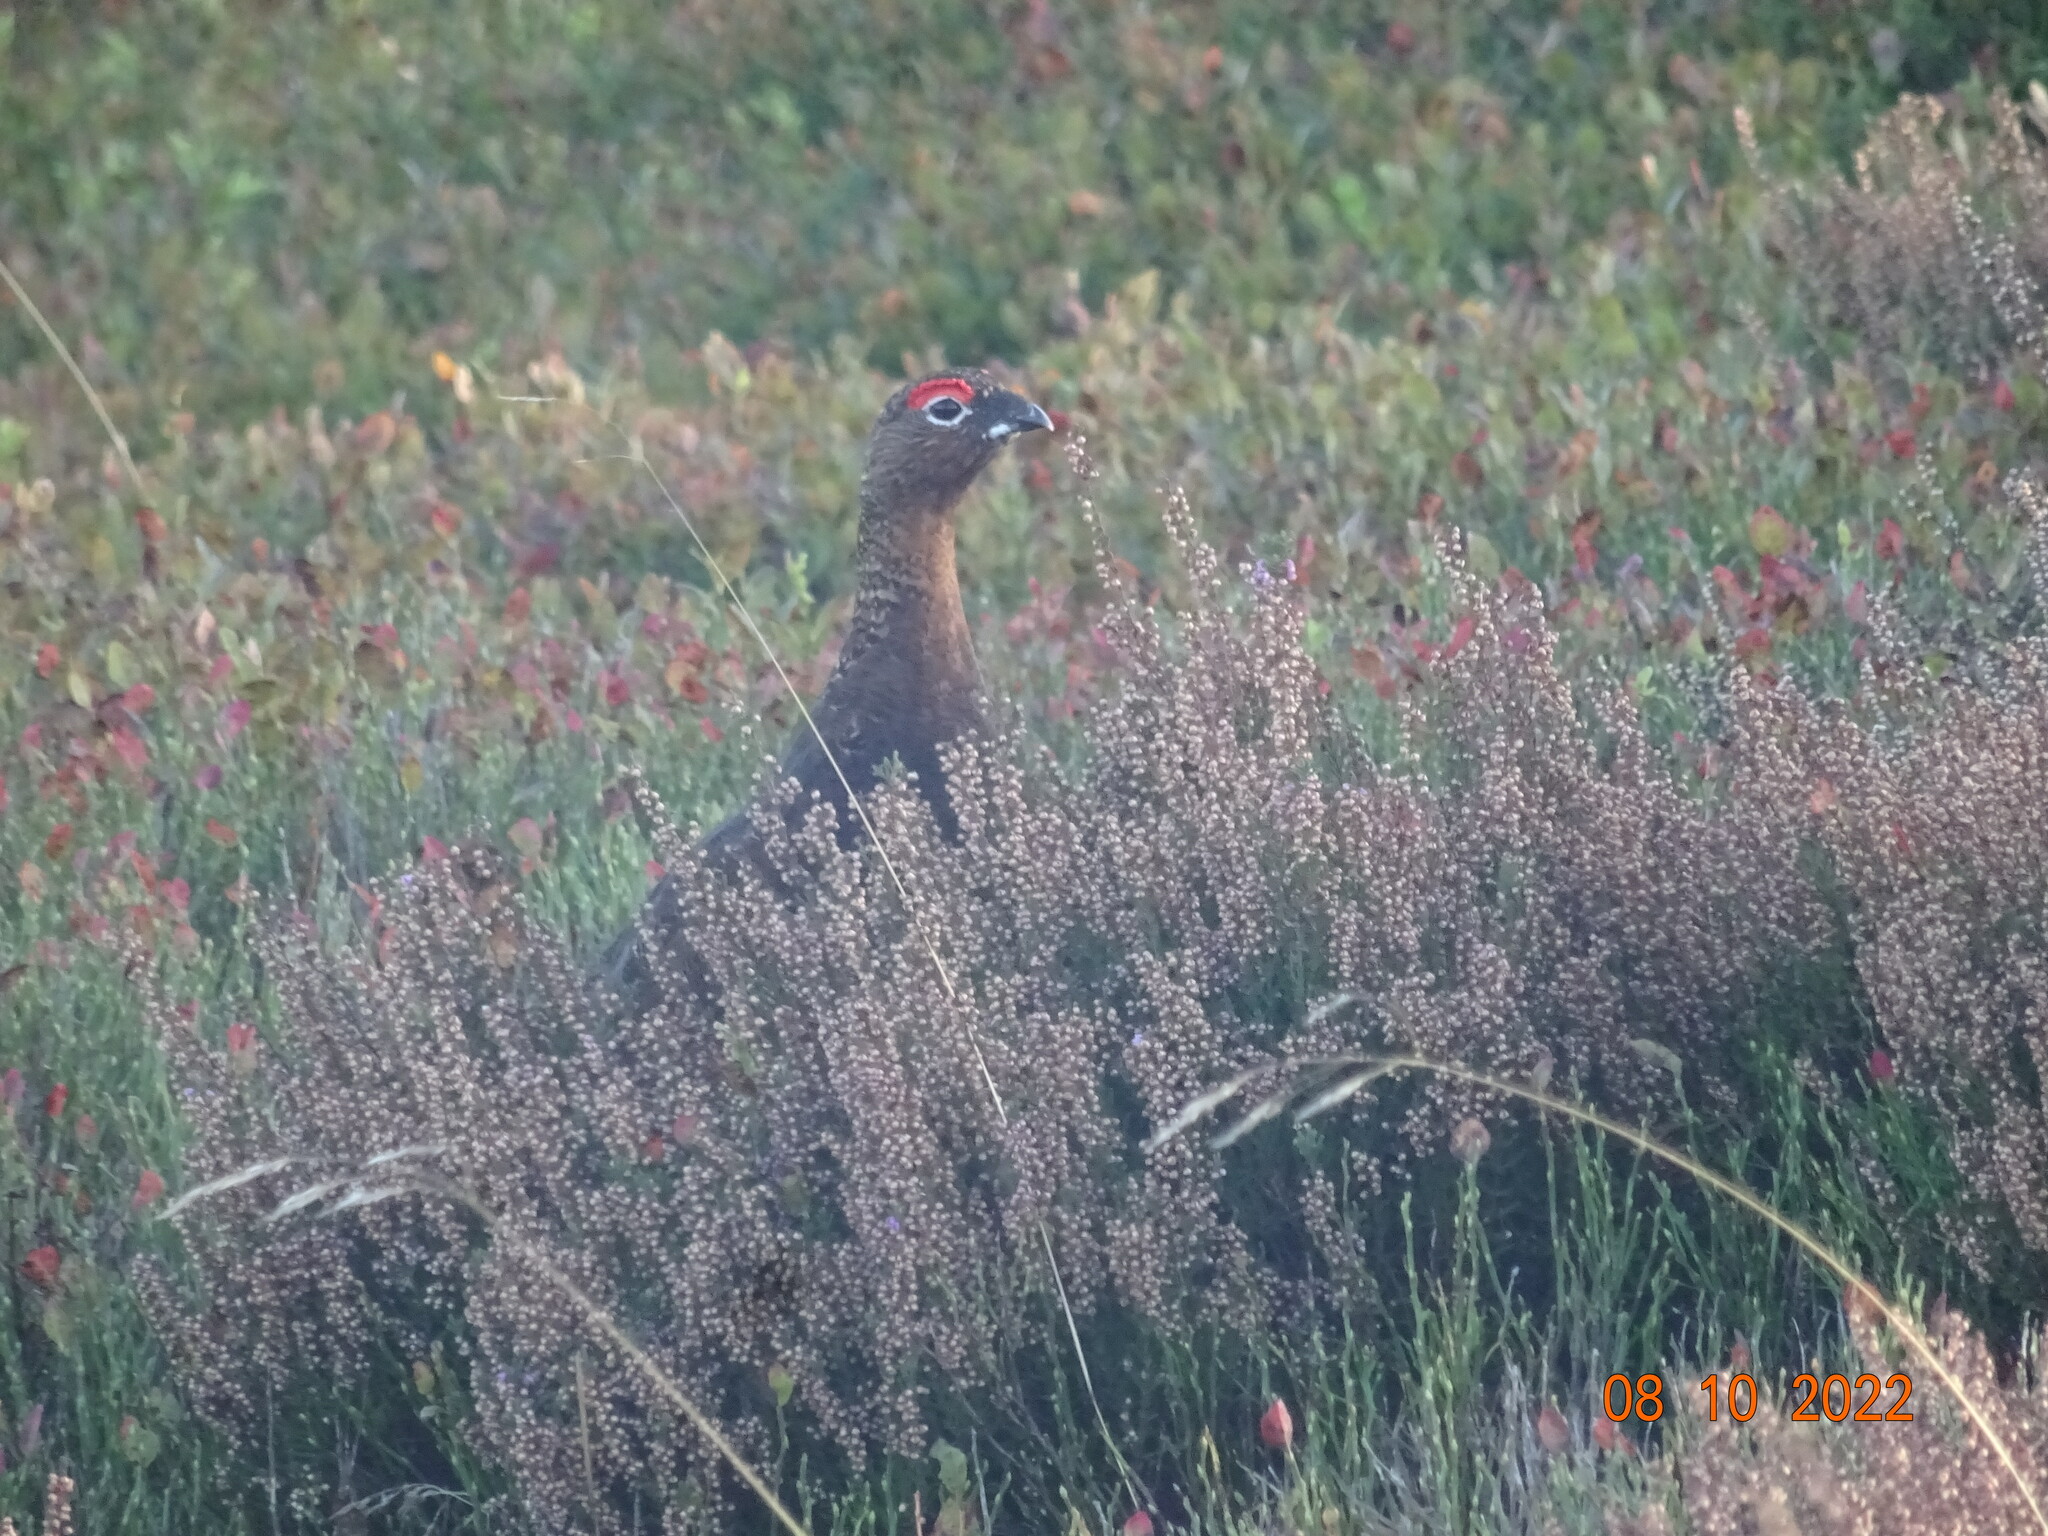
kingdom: Animalia
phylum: Chordata
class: Aves
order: Galliformes
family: Phasianidae
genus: Lagopus
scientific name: Lagopus lagopus
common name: Willow ptarmigan
